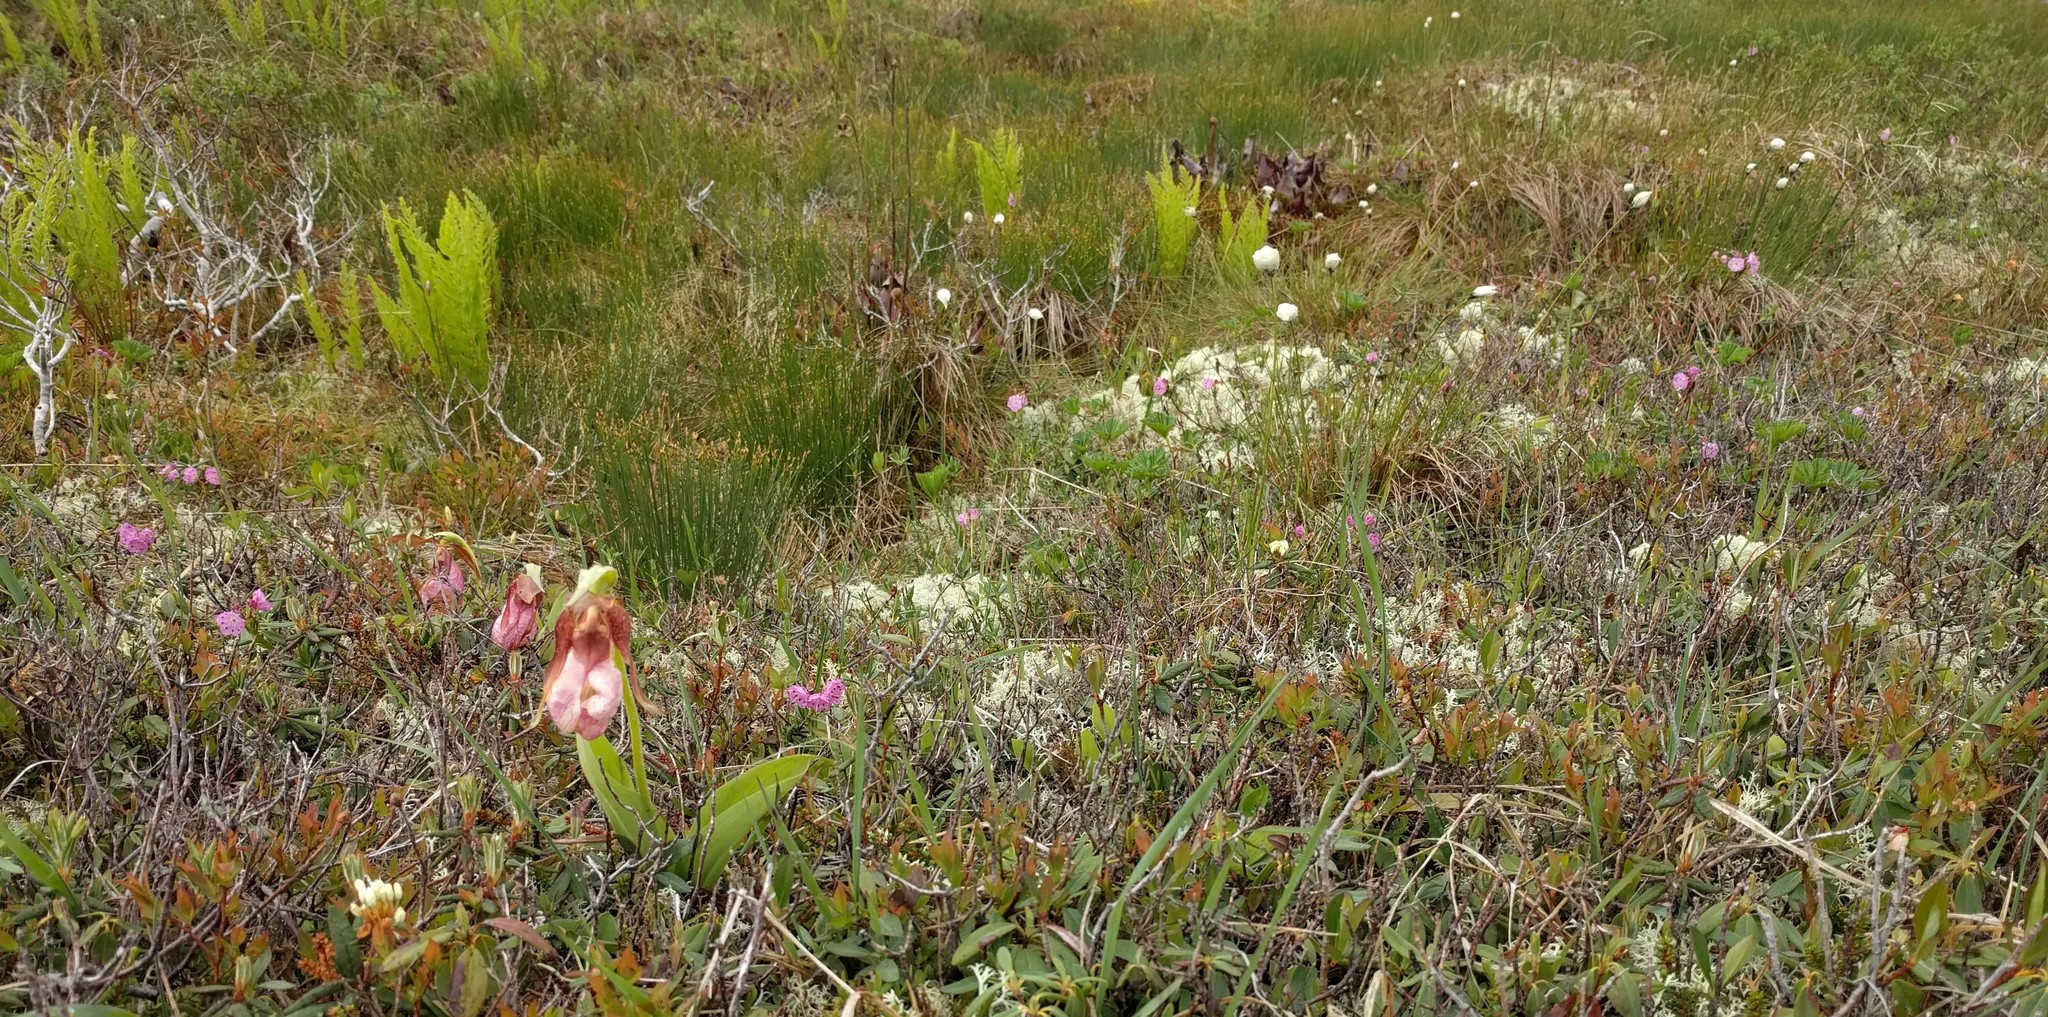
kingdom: Plantae
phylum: Tracheophyta
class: Polypodiopsida
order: Osmundales
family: Osmundaceae
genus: Osmundastrum
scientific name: Osmundastrum cinnamomeum
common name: Cinnamon fern
